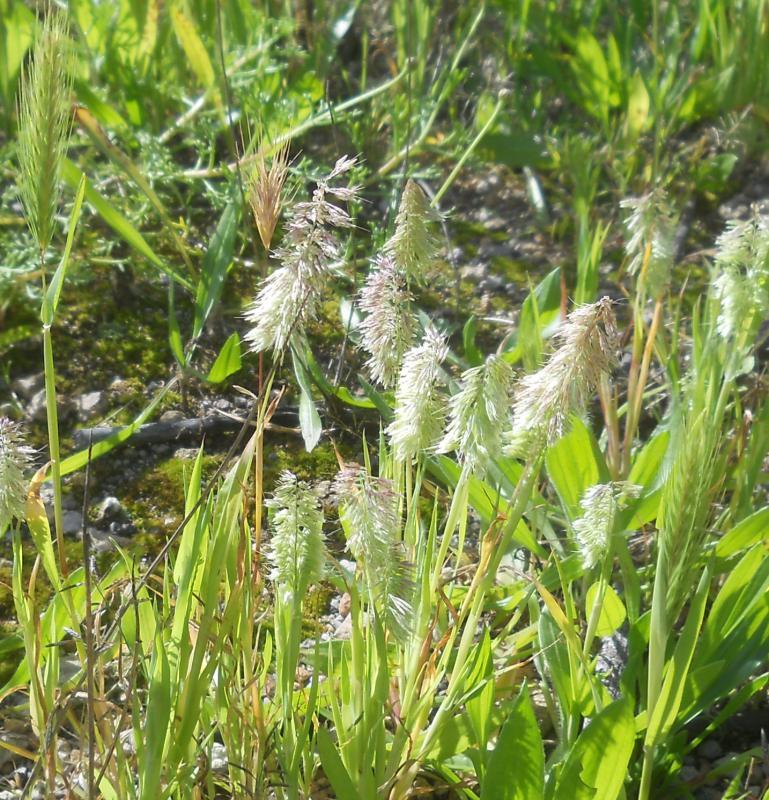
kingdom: Plantae
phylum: Tracheophyta
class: Liliopsida
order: Poales
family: Poaceae
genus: Lamarckia
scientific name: Lamarckia aurea
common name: Golden dog's-tail
